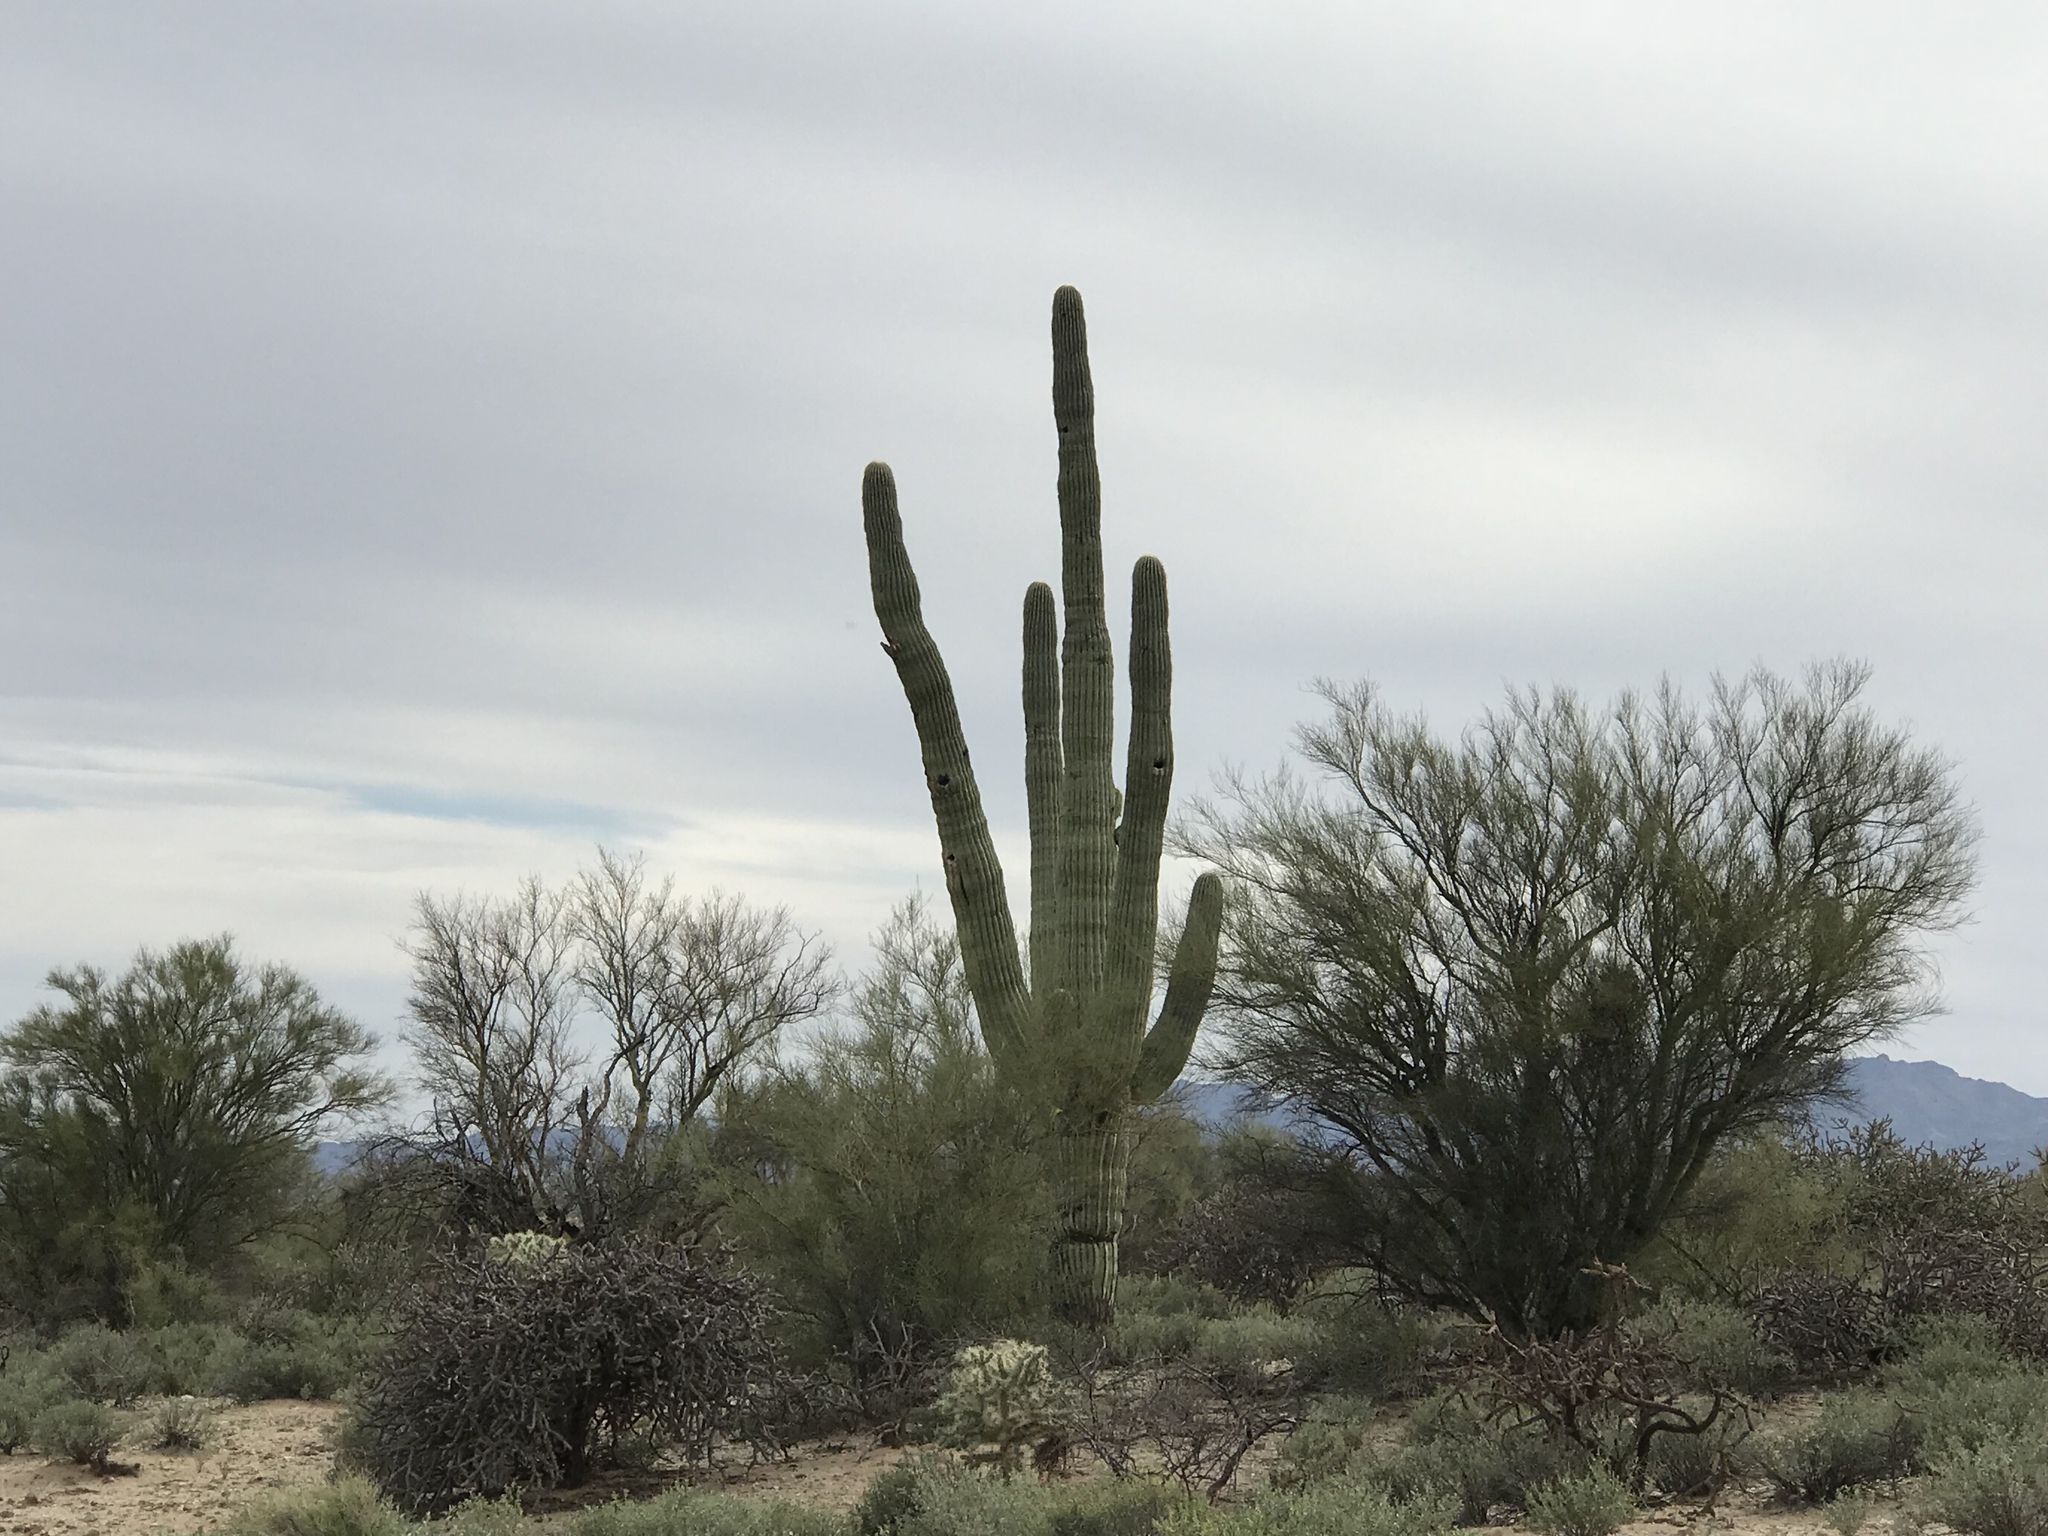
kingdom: Plantae
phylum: Tracheophyta
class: Magnoliopsida
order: Caryophyllales
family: Cactaceae
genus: Carnegiea
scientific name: Carnegiea gigantea
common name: Saguaro
